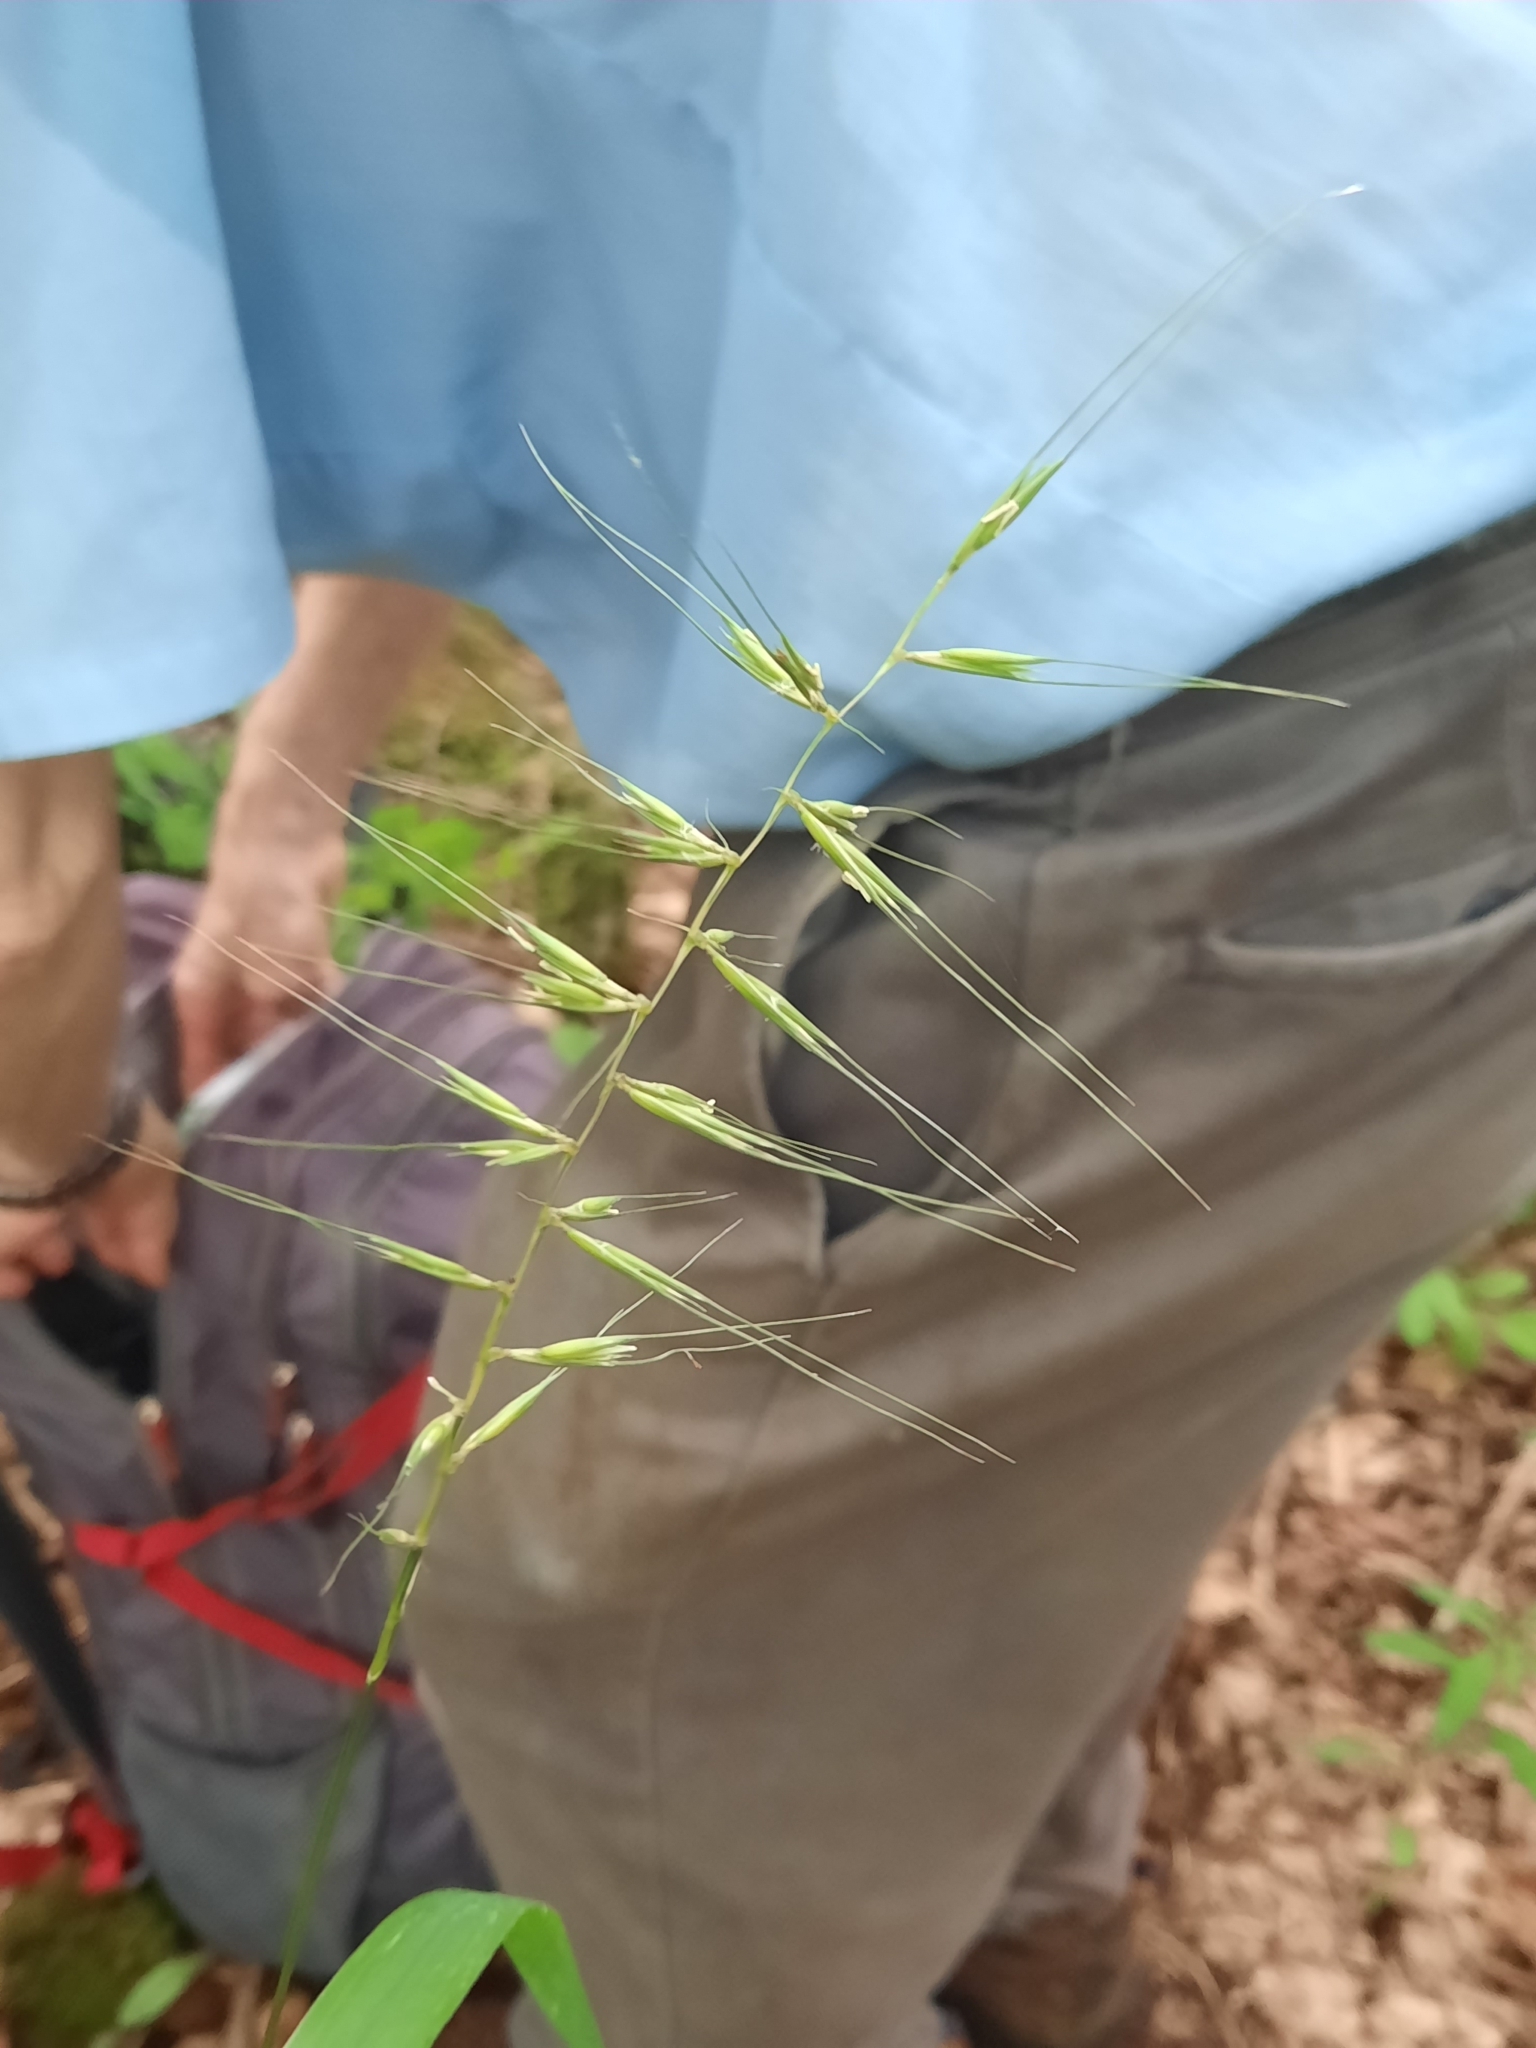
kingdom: Plantae
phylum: Tracheophyta
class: Liliopsida
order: Poales
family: Poaceae
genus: Elymus
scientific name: Elymus hystrix
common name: Bottlebrush grass
